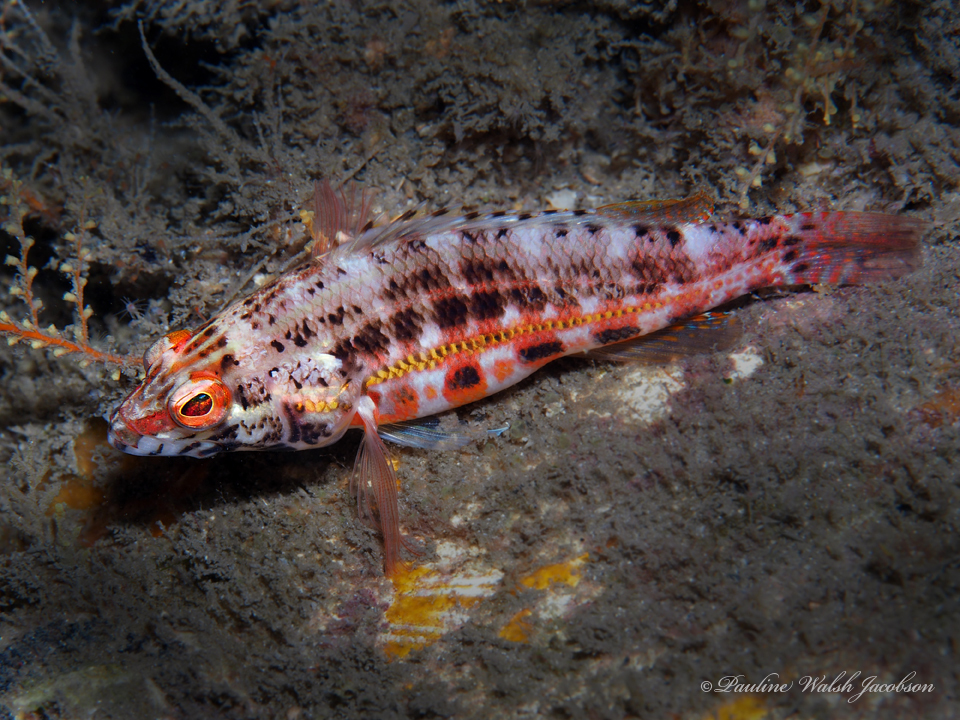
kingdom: Animalia
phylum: Chordata
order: Perciformes
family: Serranidae
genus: Serranus
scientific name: Serranus baldwini
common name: Lantern bass
